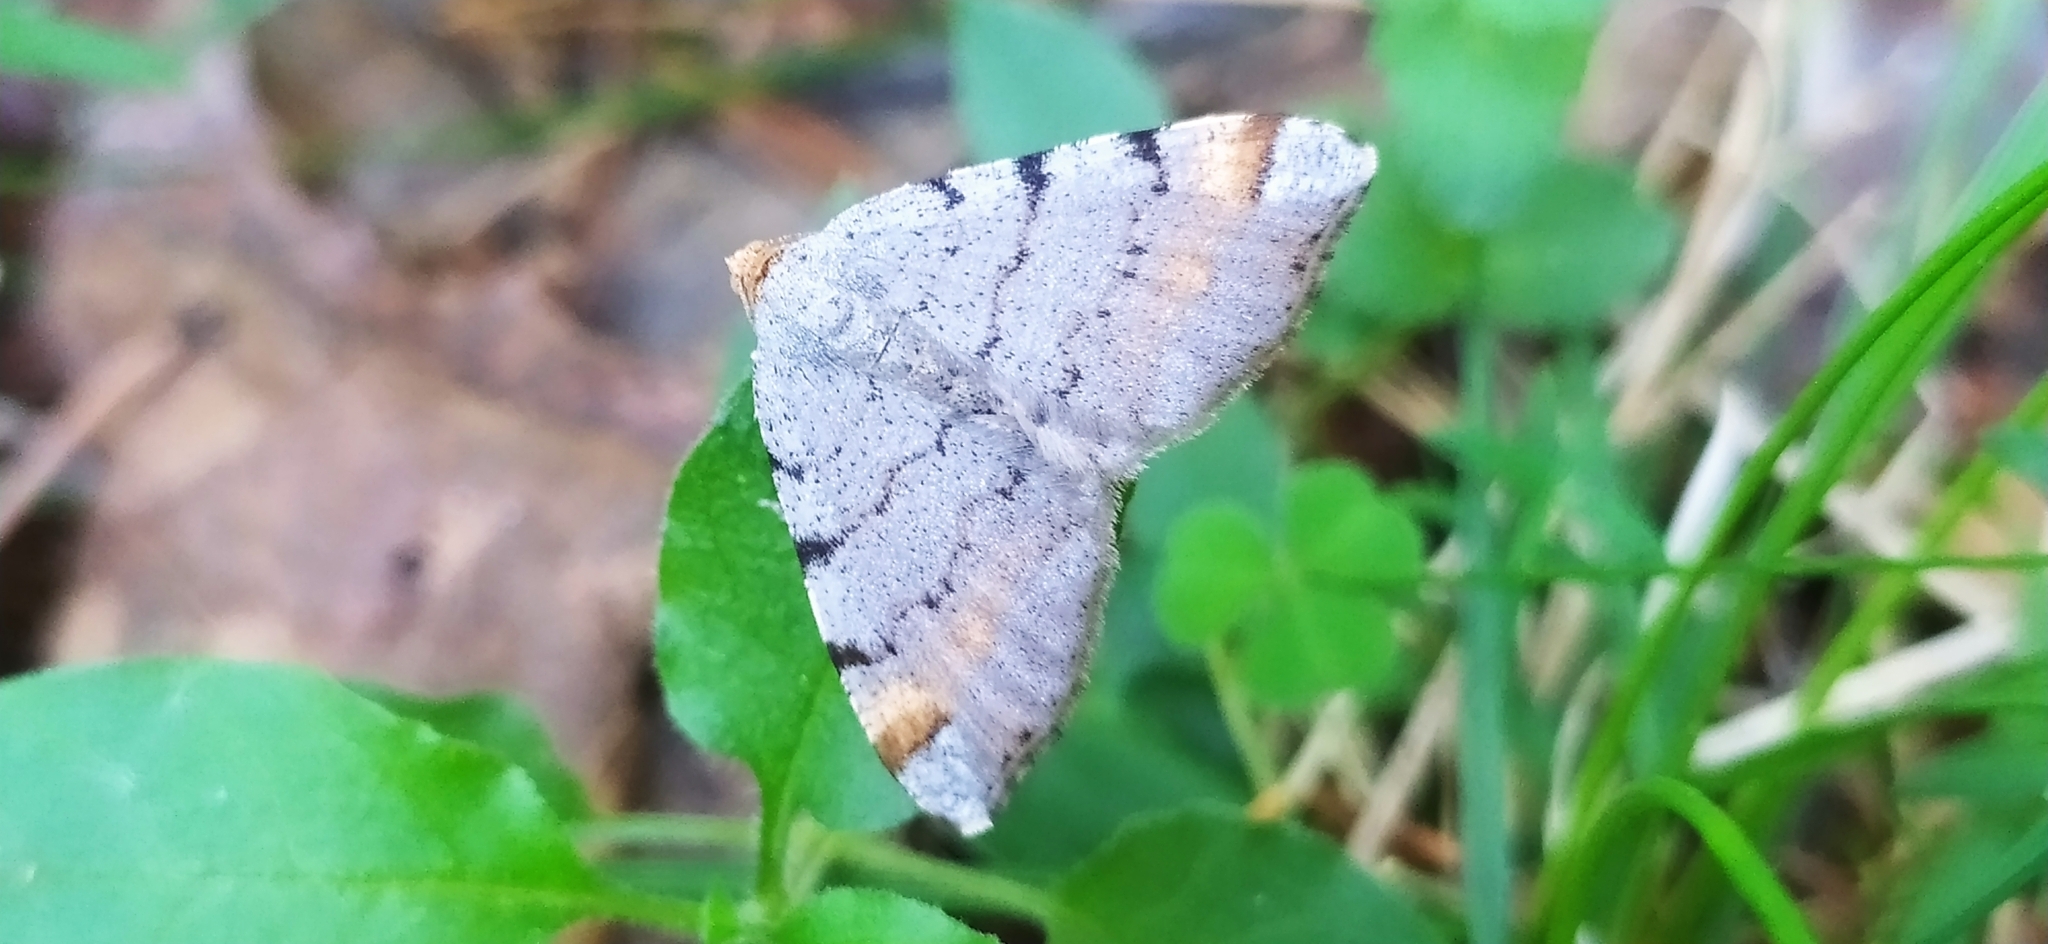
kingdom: Animalia
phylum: Arthropoda
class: Insecta
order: Lepidoptera
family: Geometridae
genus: Macaria
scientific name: Macaria liturata
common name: Tawny-barred angle
